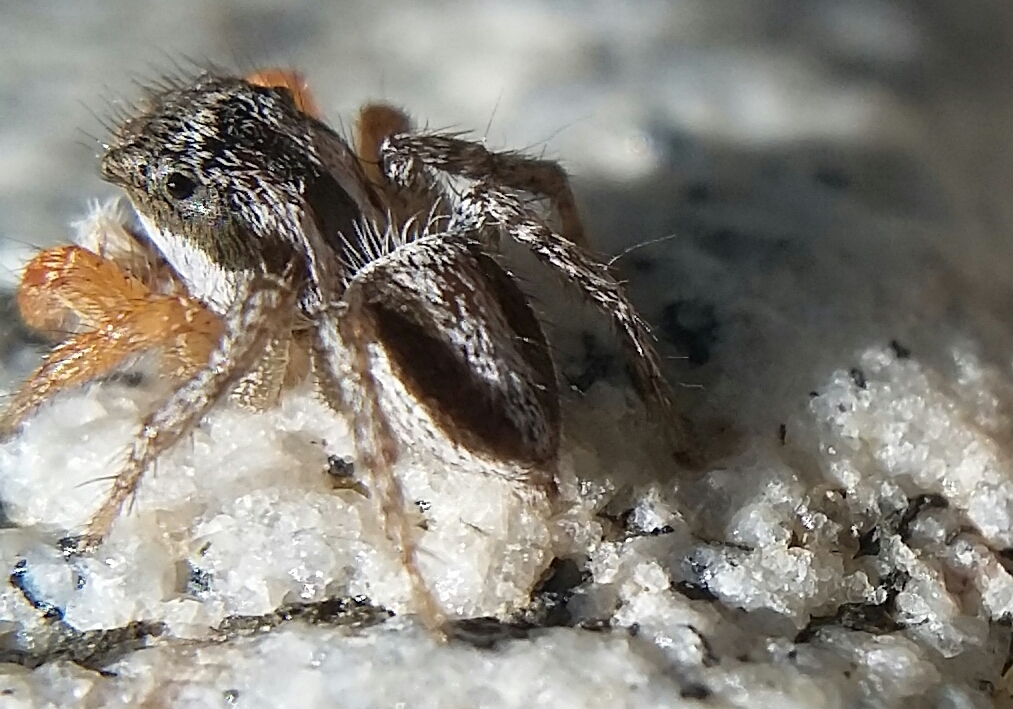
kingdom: Animalia
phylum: Arthropoda
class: Arachnida
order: Araneae
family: Salticidae
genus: Habronattus
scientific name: Habronattus icenoglei
